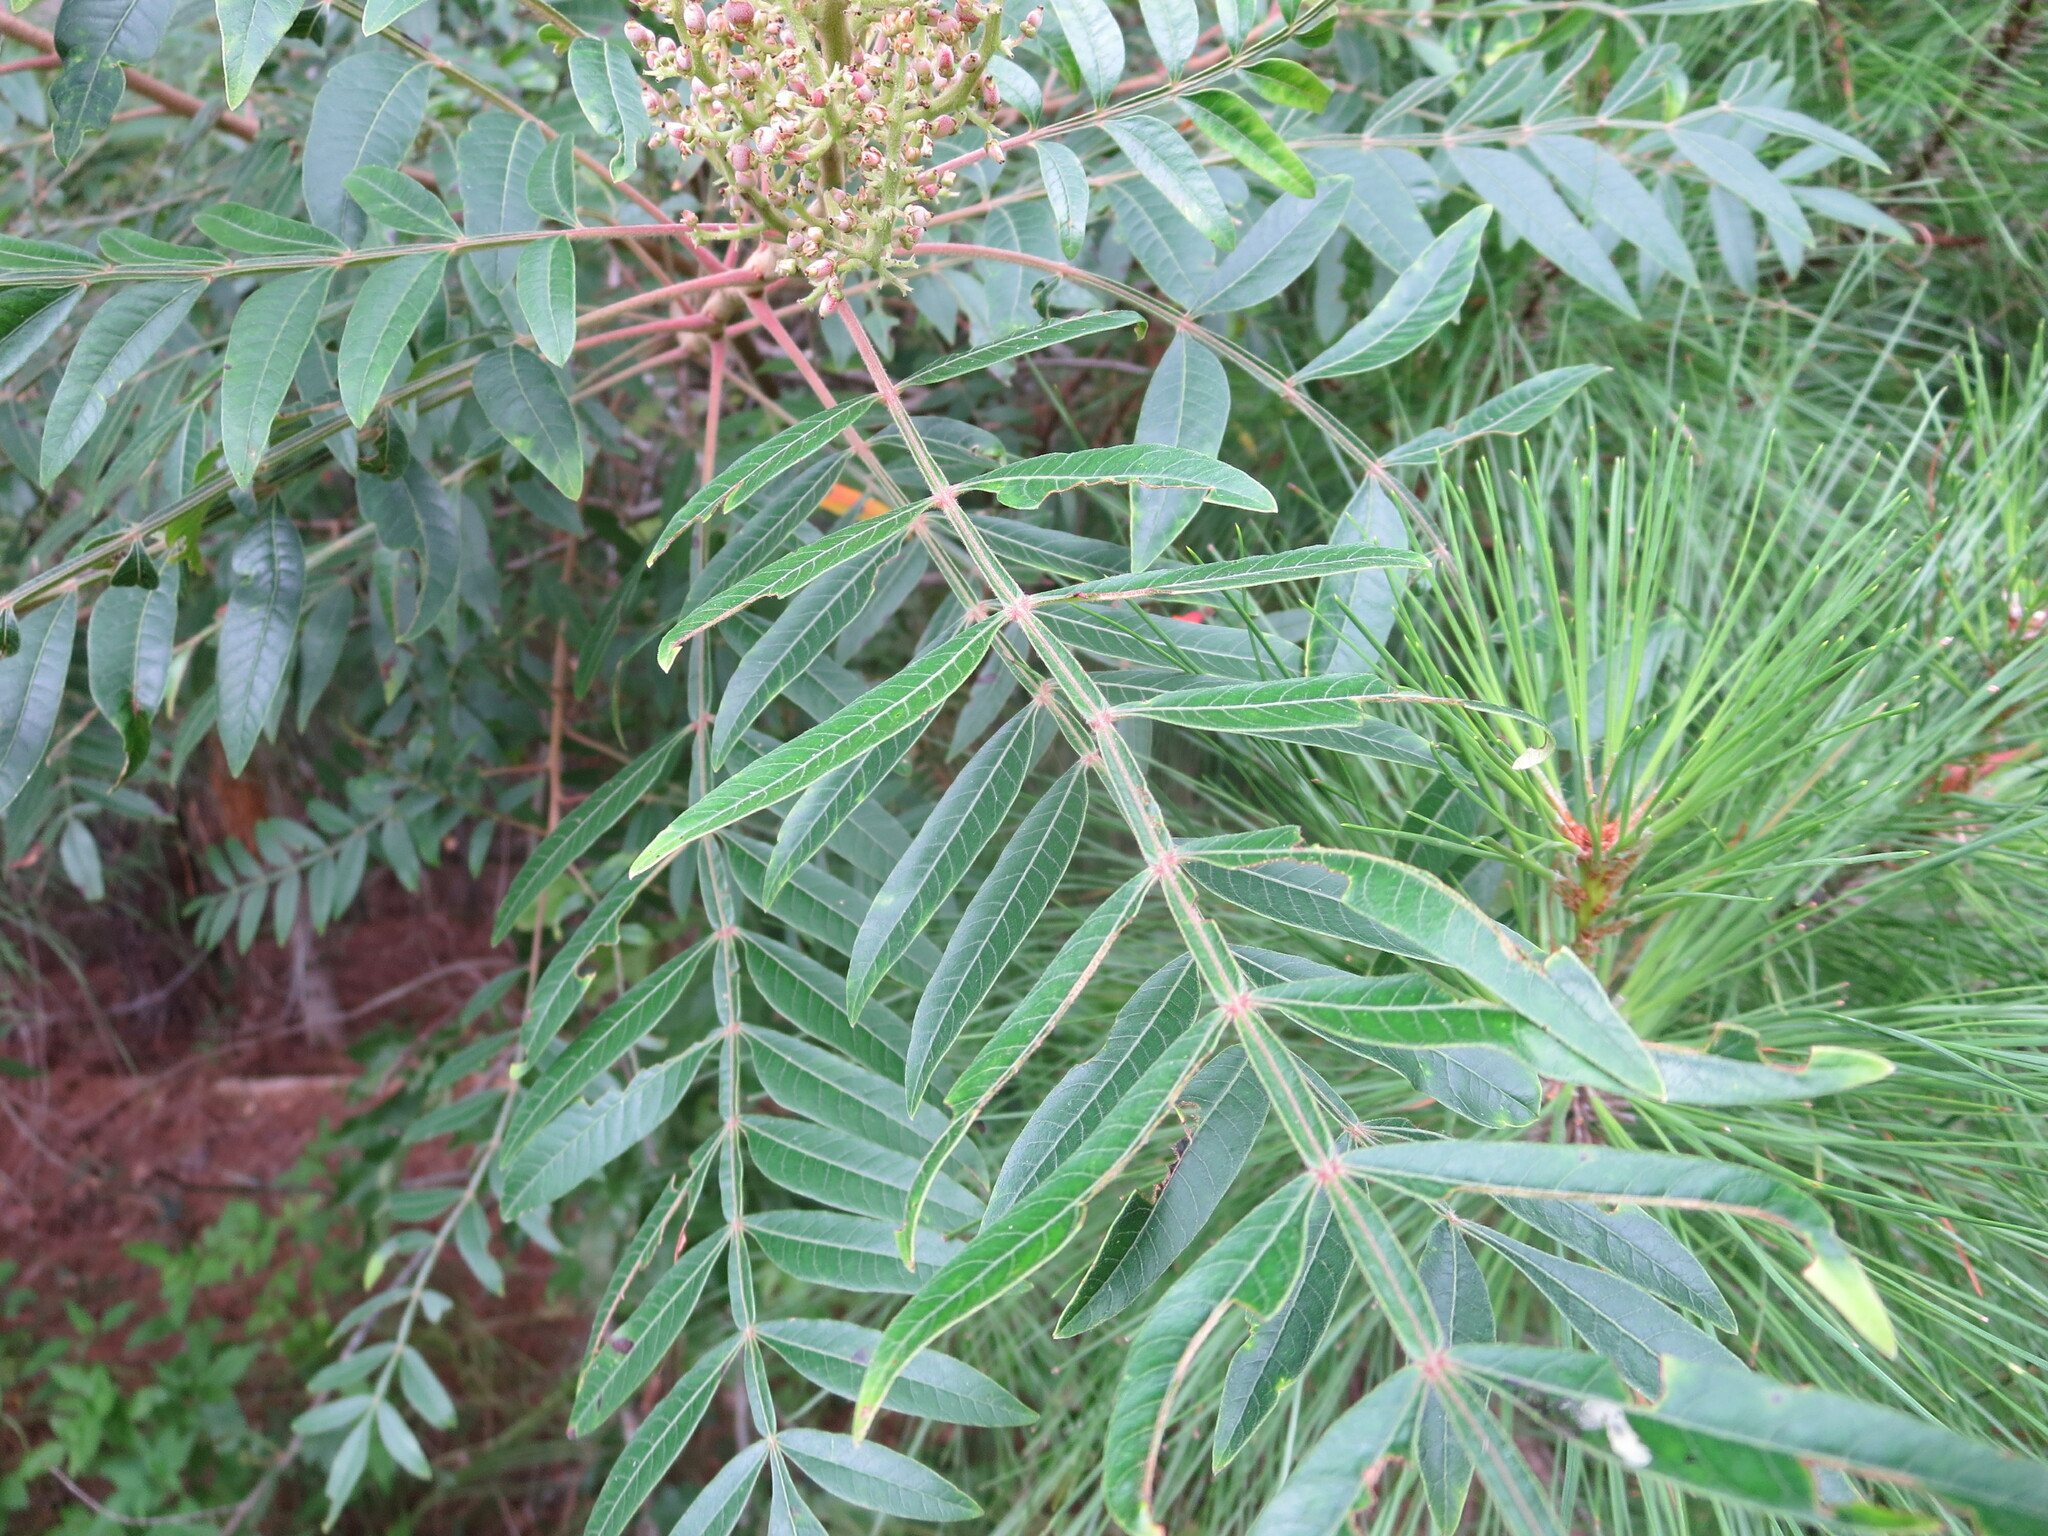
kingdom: Plantae
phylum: Tracheophyta
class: Magnoliopsida
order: Sapindales
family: Anacardiaceae
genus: Rhus
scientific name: Rhus copallina
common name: Shining sumac
